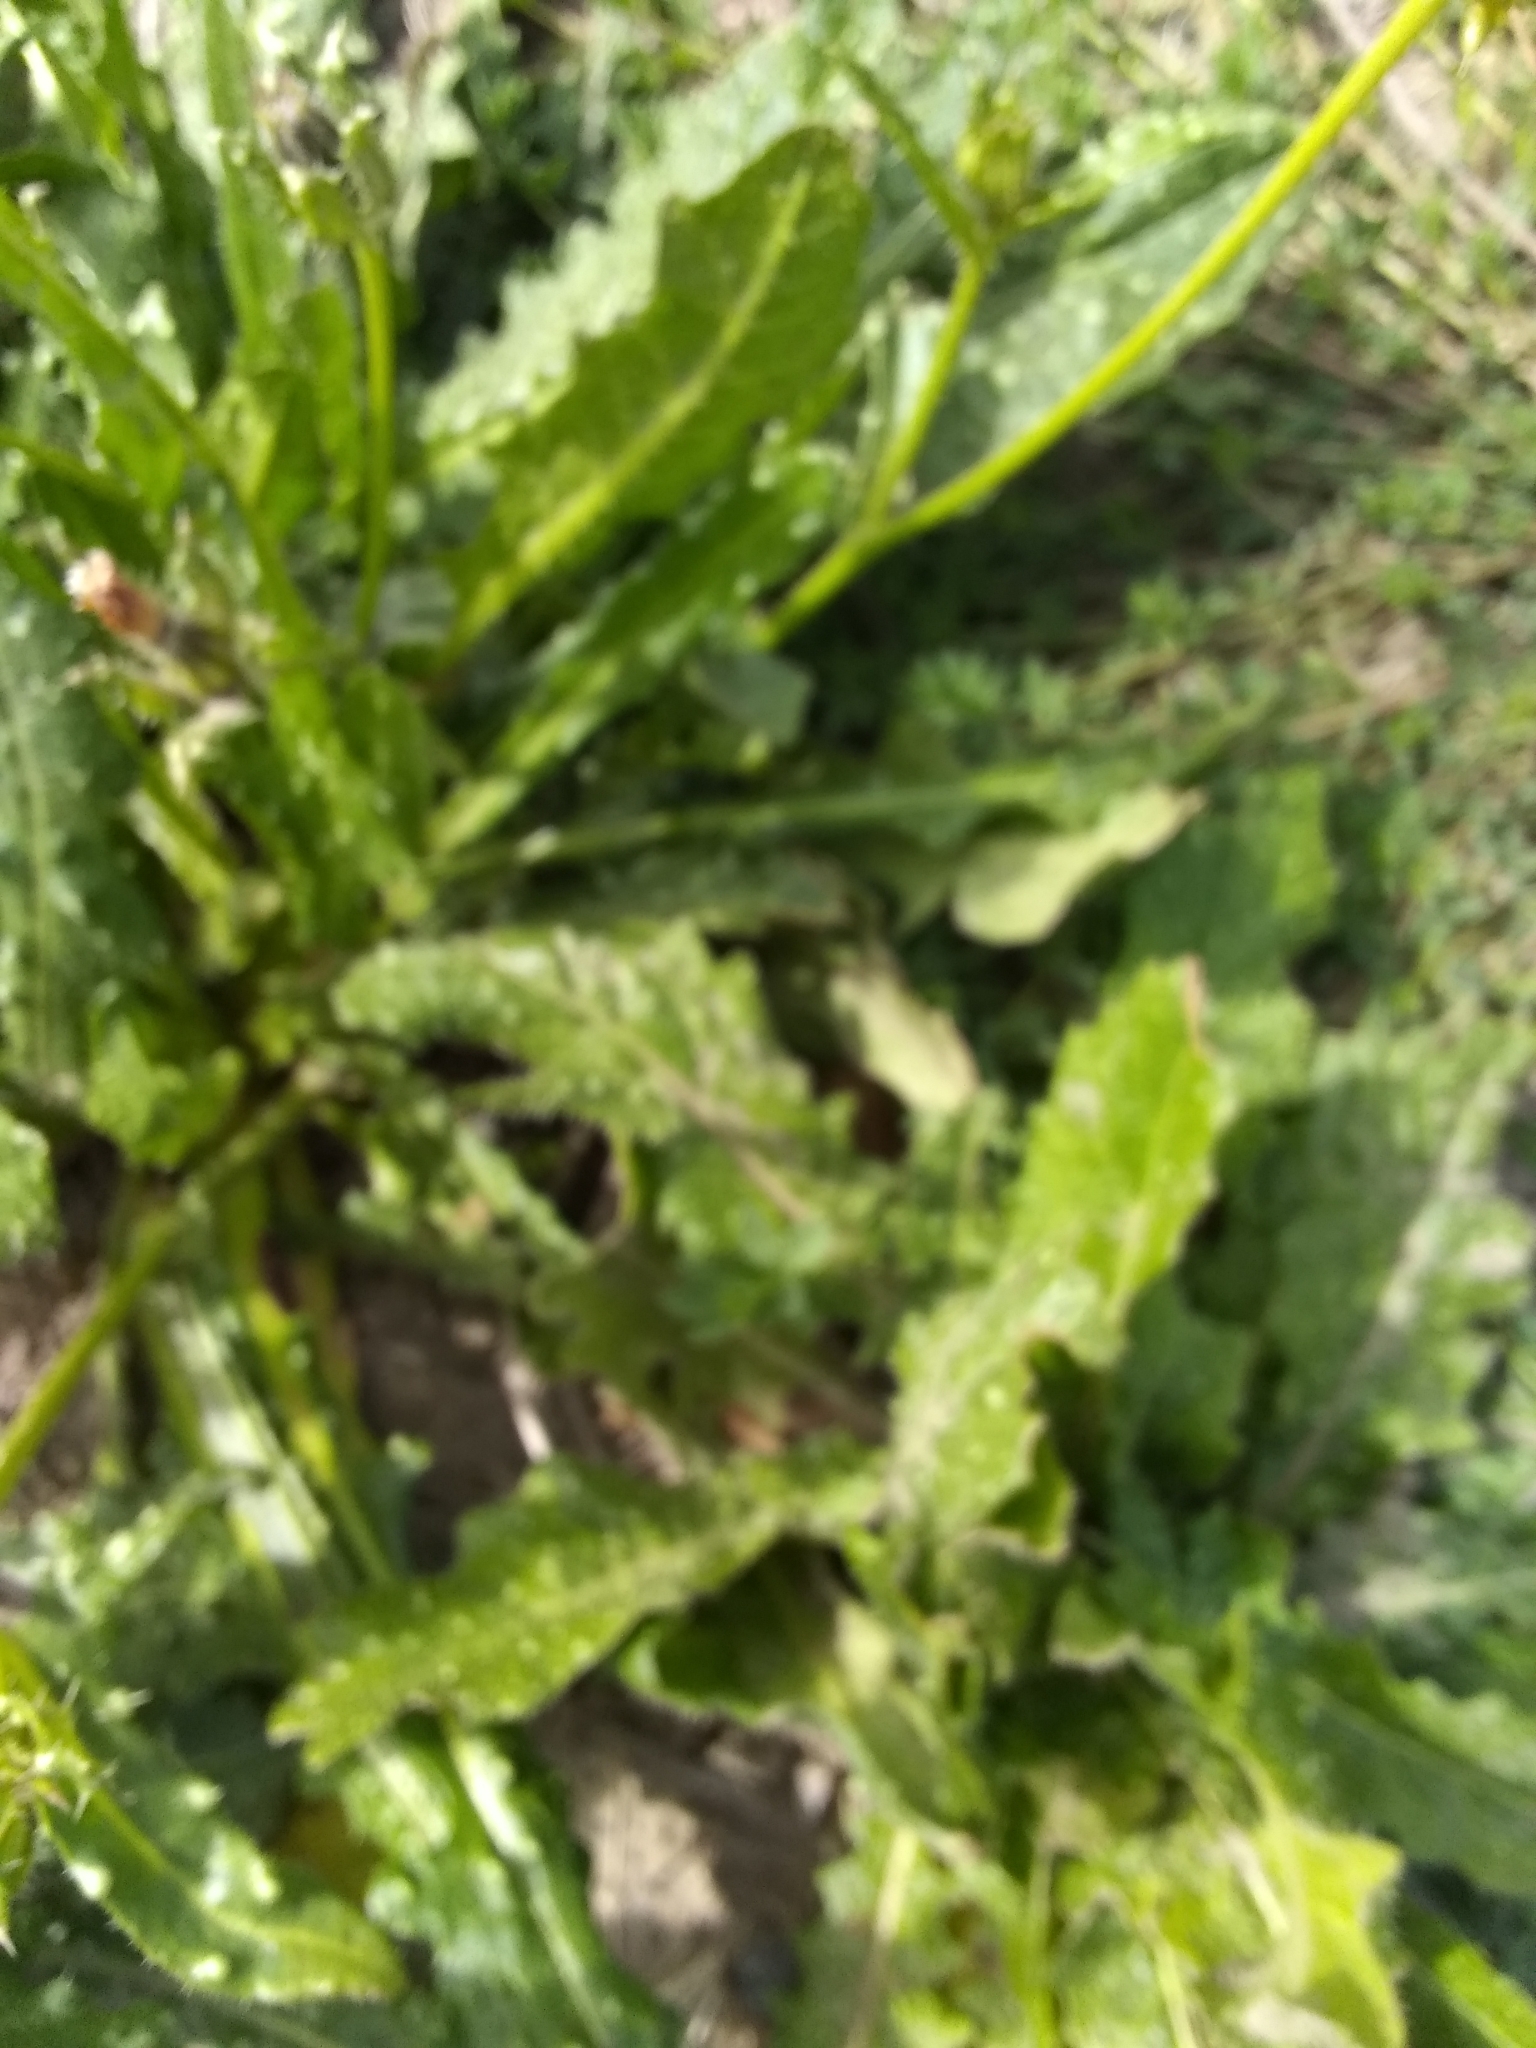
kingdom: Plantae
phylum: Tracheophyta
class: Magnoliopsida
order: Asterales
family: Asteraceae
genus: Helminthotheca
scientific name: Helminthotheca echioides
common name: Ox-tongue
